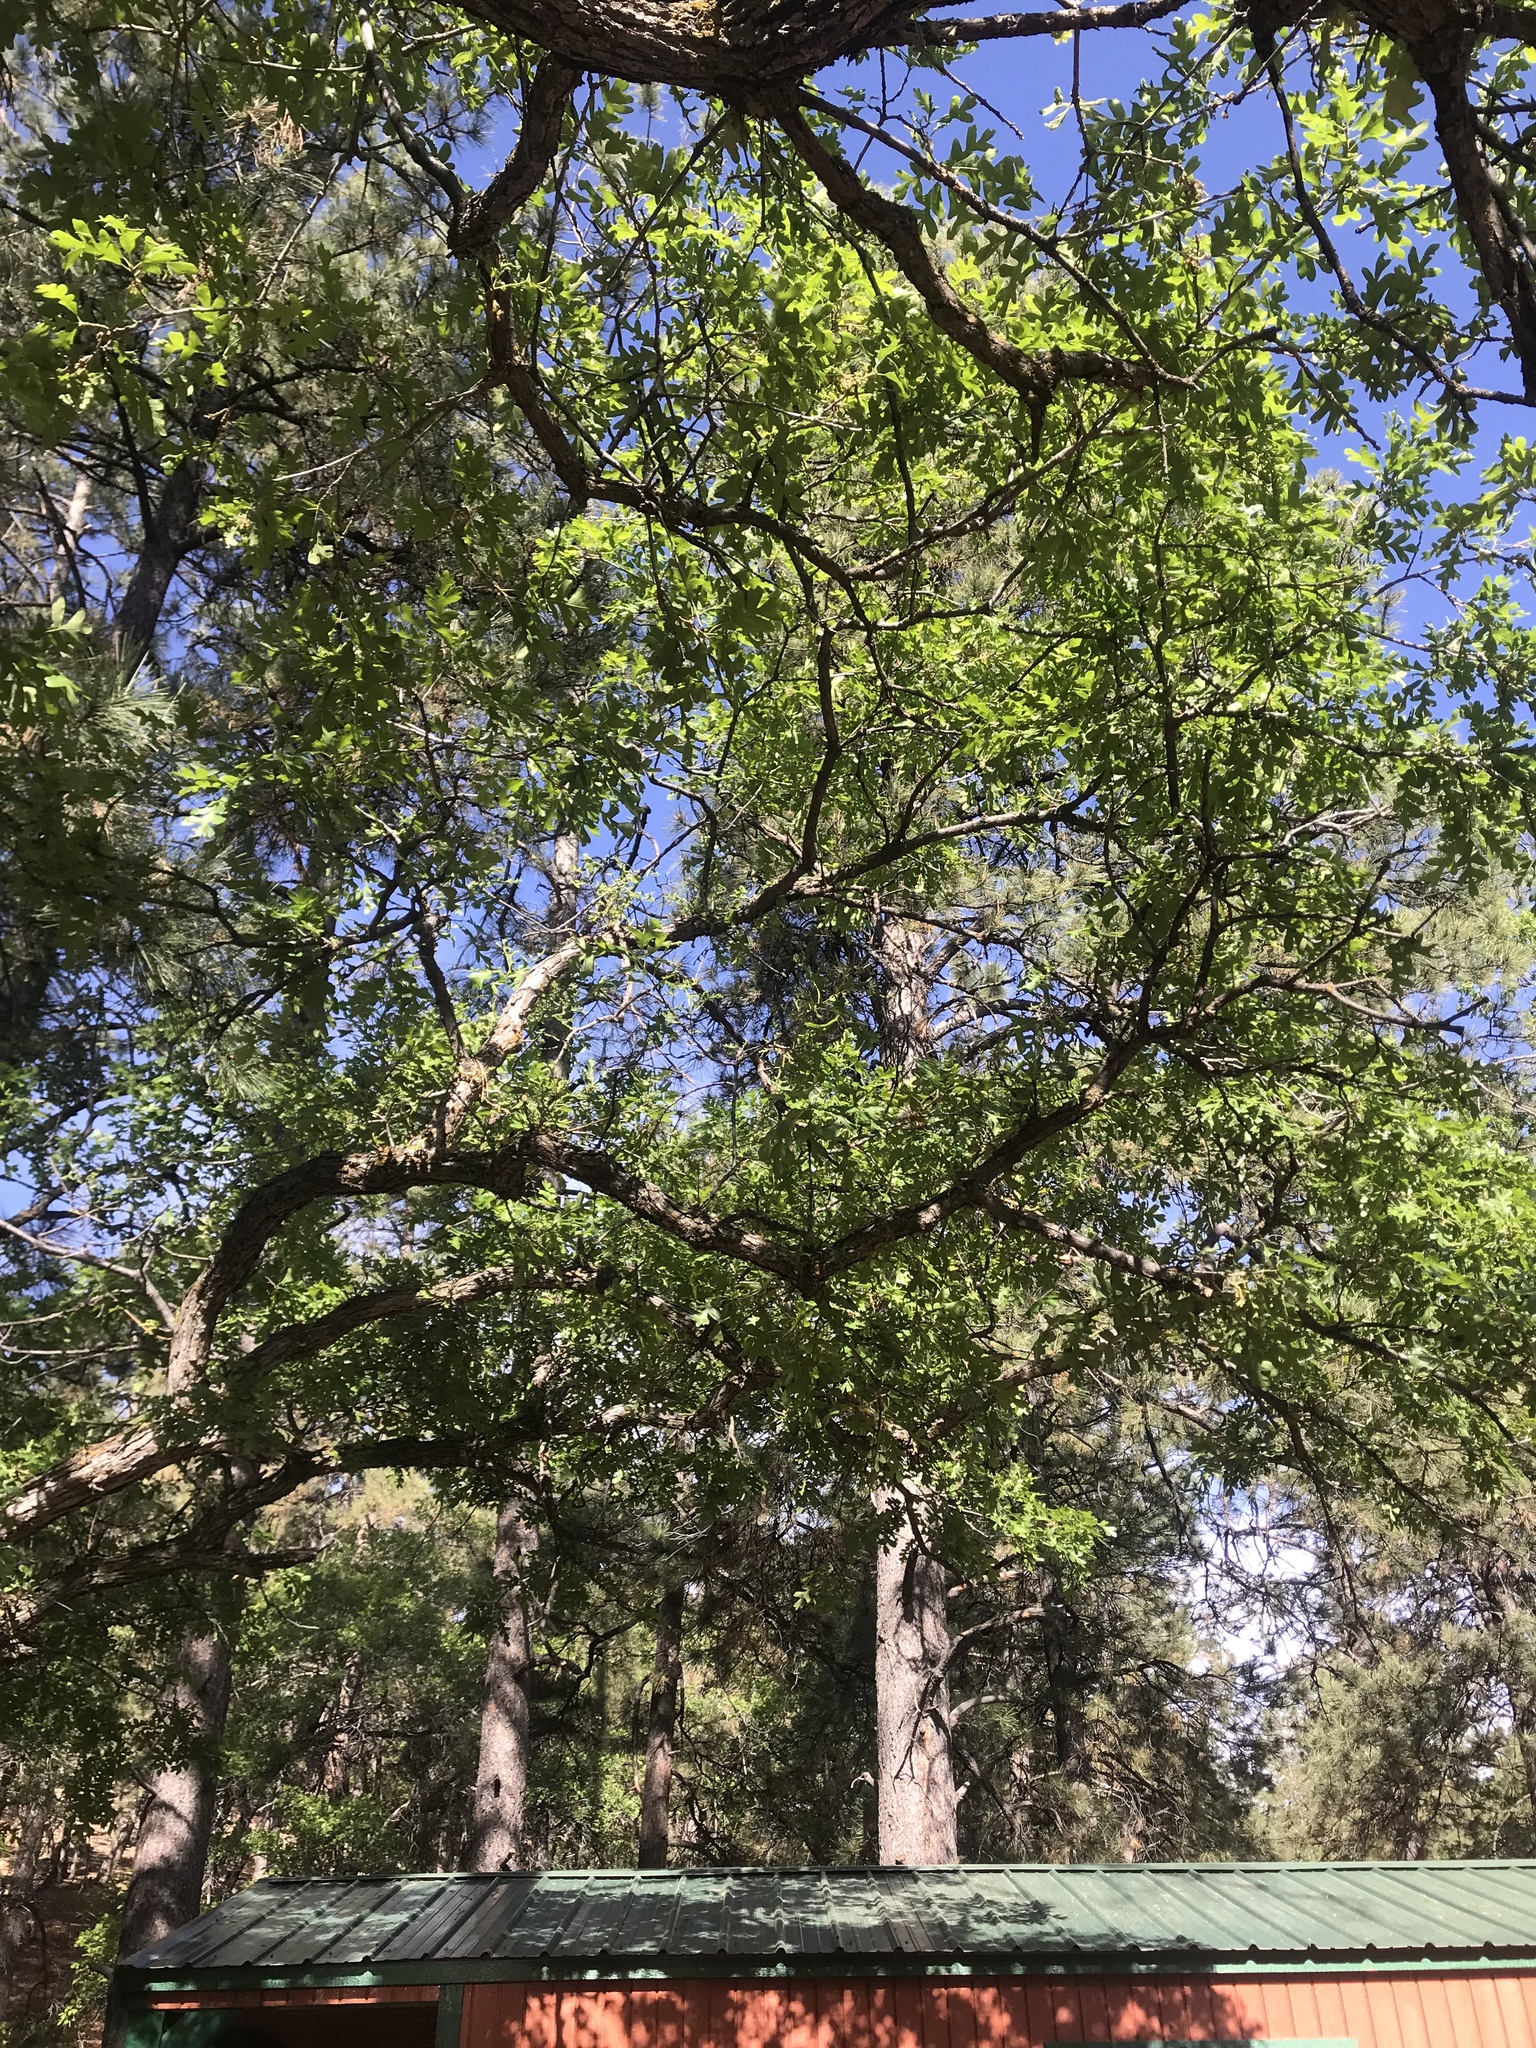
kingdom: Plantae
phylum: Tracheophyta
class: Magnoliopsida
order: Fagales
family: Fagaceae
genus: Quercus
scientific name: Quercus gambelii
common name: Gambel oak
